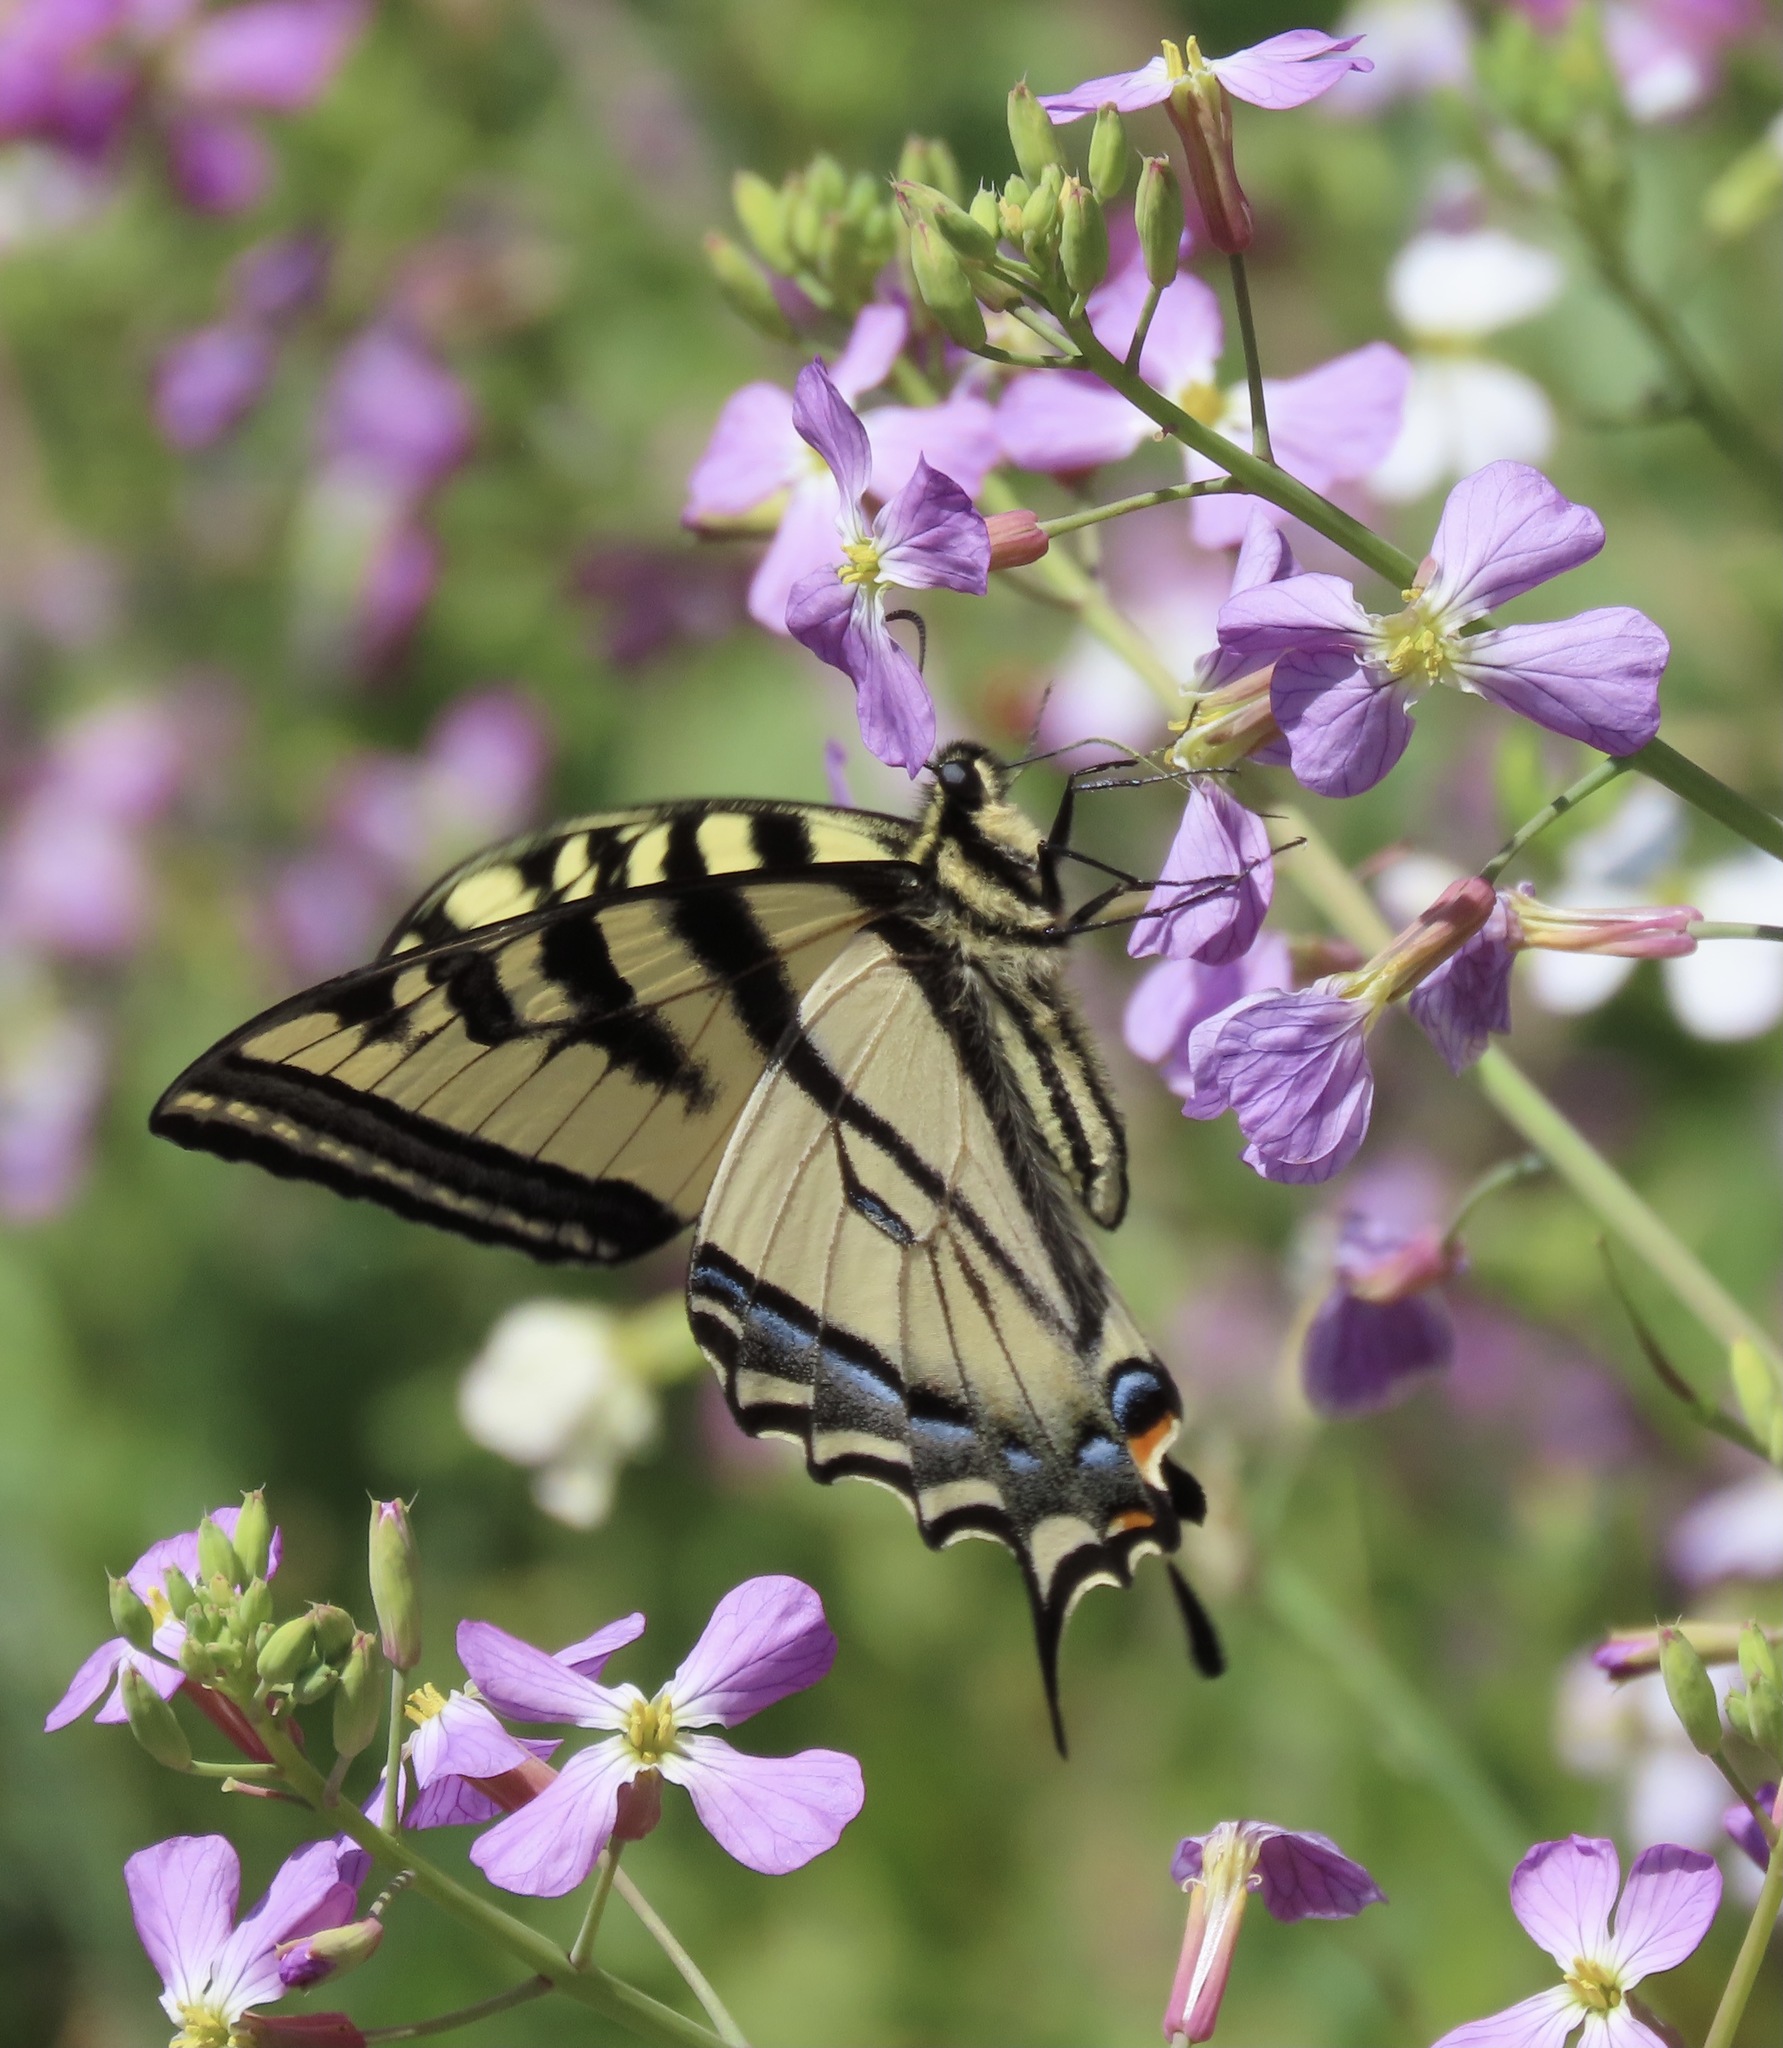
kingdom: Animalia
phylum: Arthropoda
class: Insecta
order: Lepidoptera
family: Papilionidae
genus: Papilio
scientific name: Papilio rutulus
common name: Western tiger swallowtail
